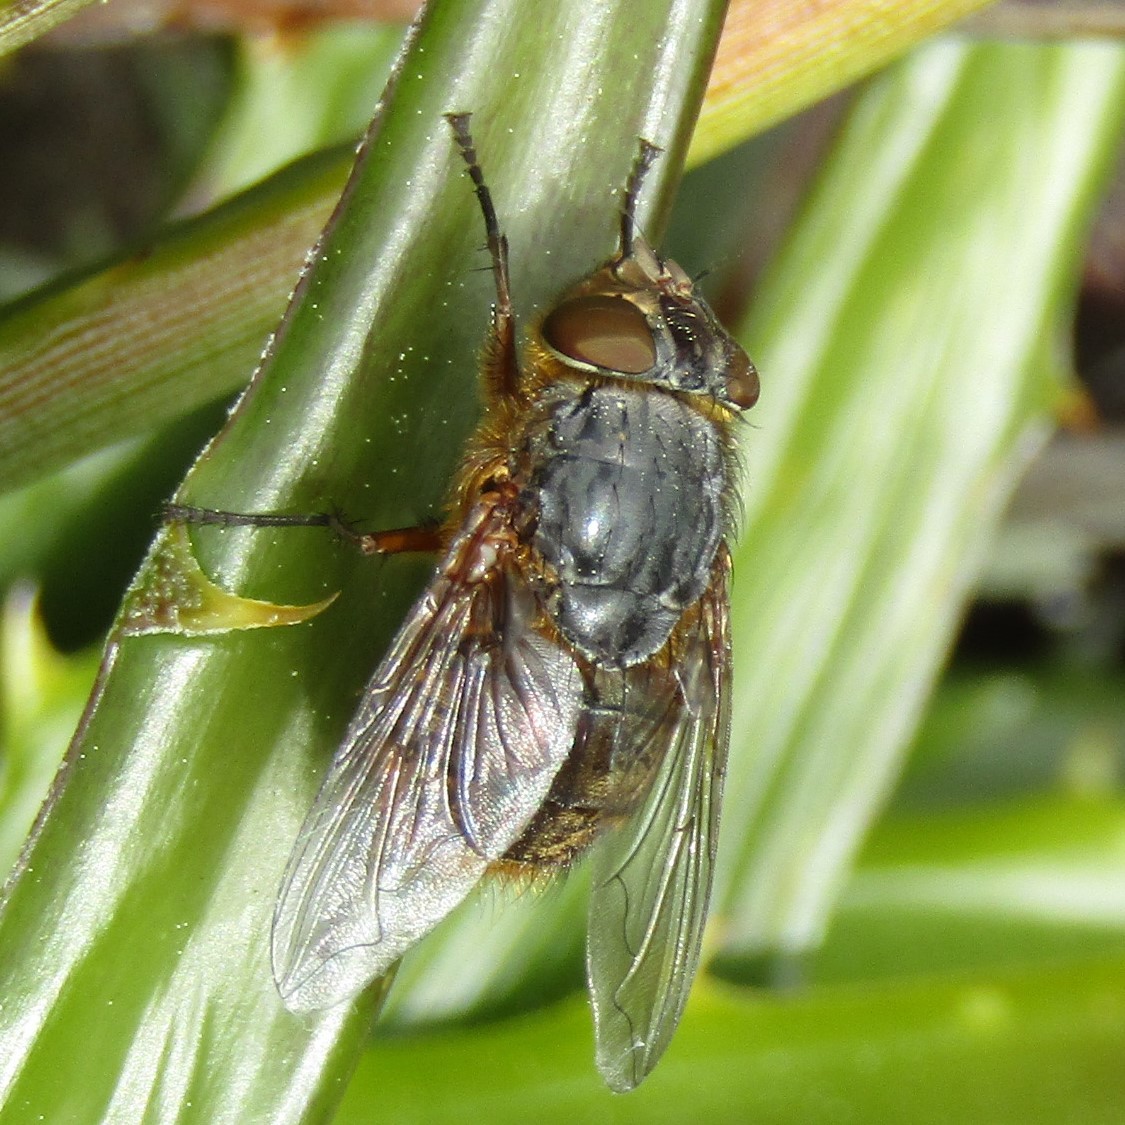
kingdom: Animalia
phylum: Arthropoda
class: Insecta
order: Diptera
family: Calliphoridae
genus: Calliphora
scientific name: Calliphora stygia
